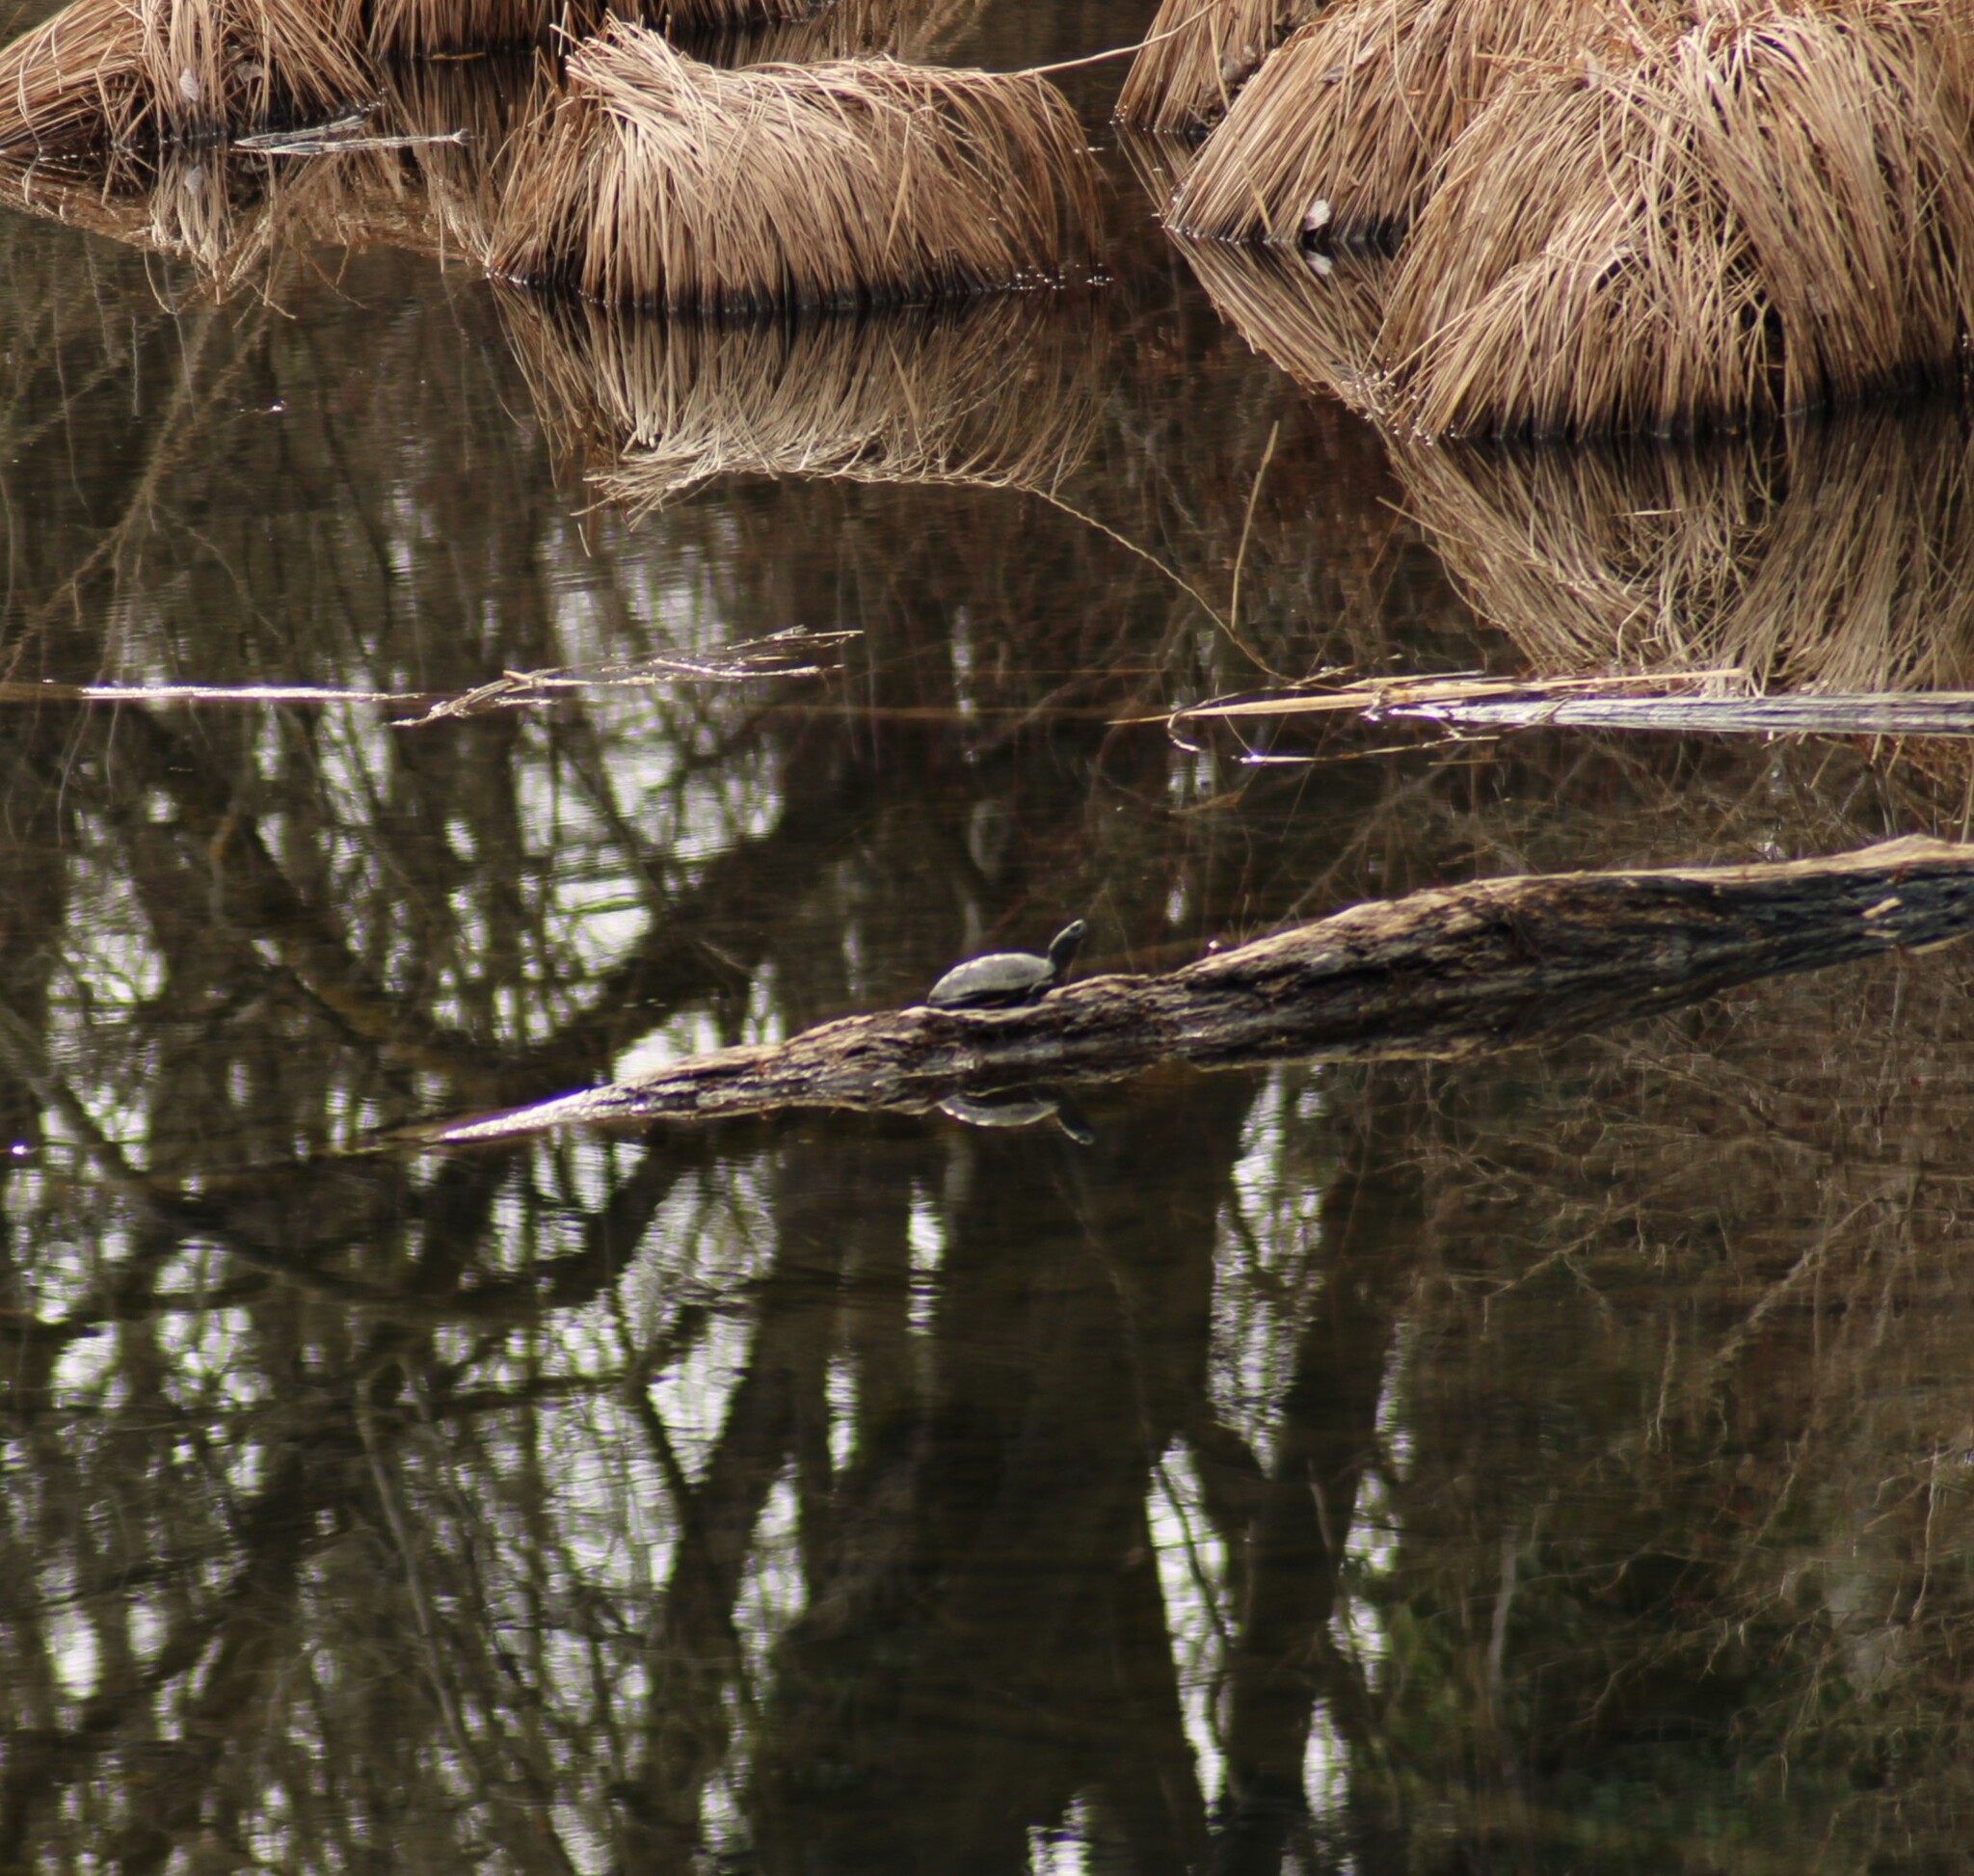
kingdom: Animalia
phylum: Chordata
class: Testudines
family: Emydidae
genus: Emys
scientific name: Emys orbicularis
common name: European pond turtle
